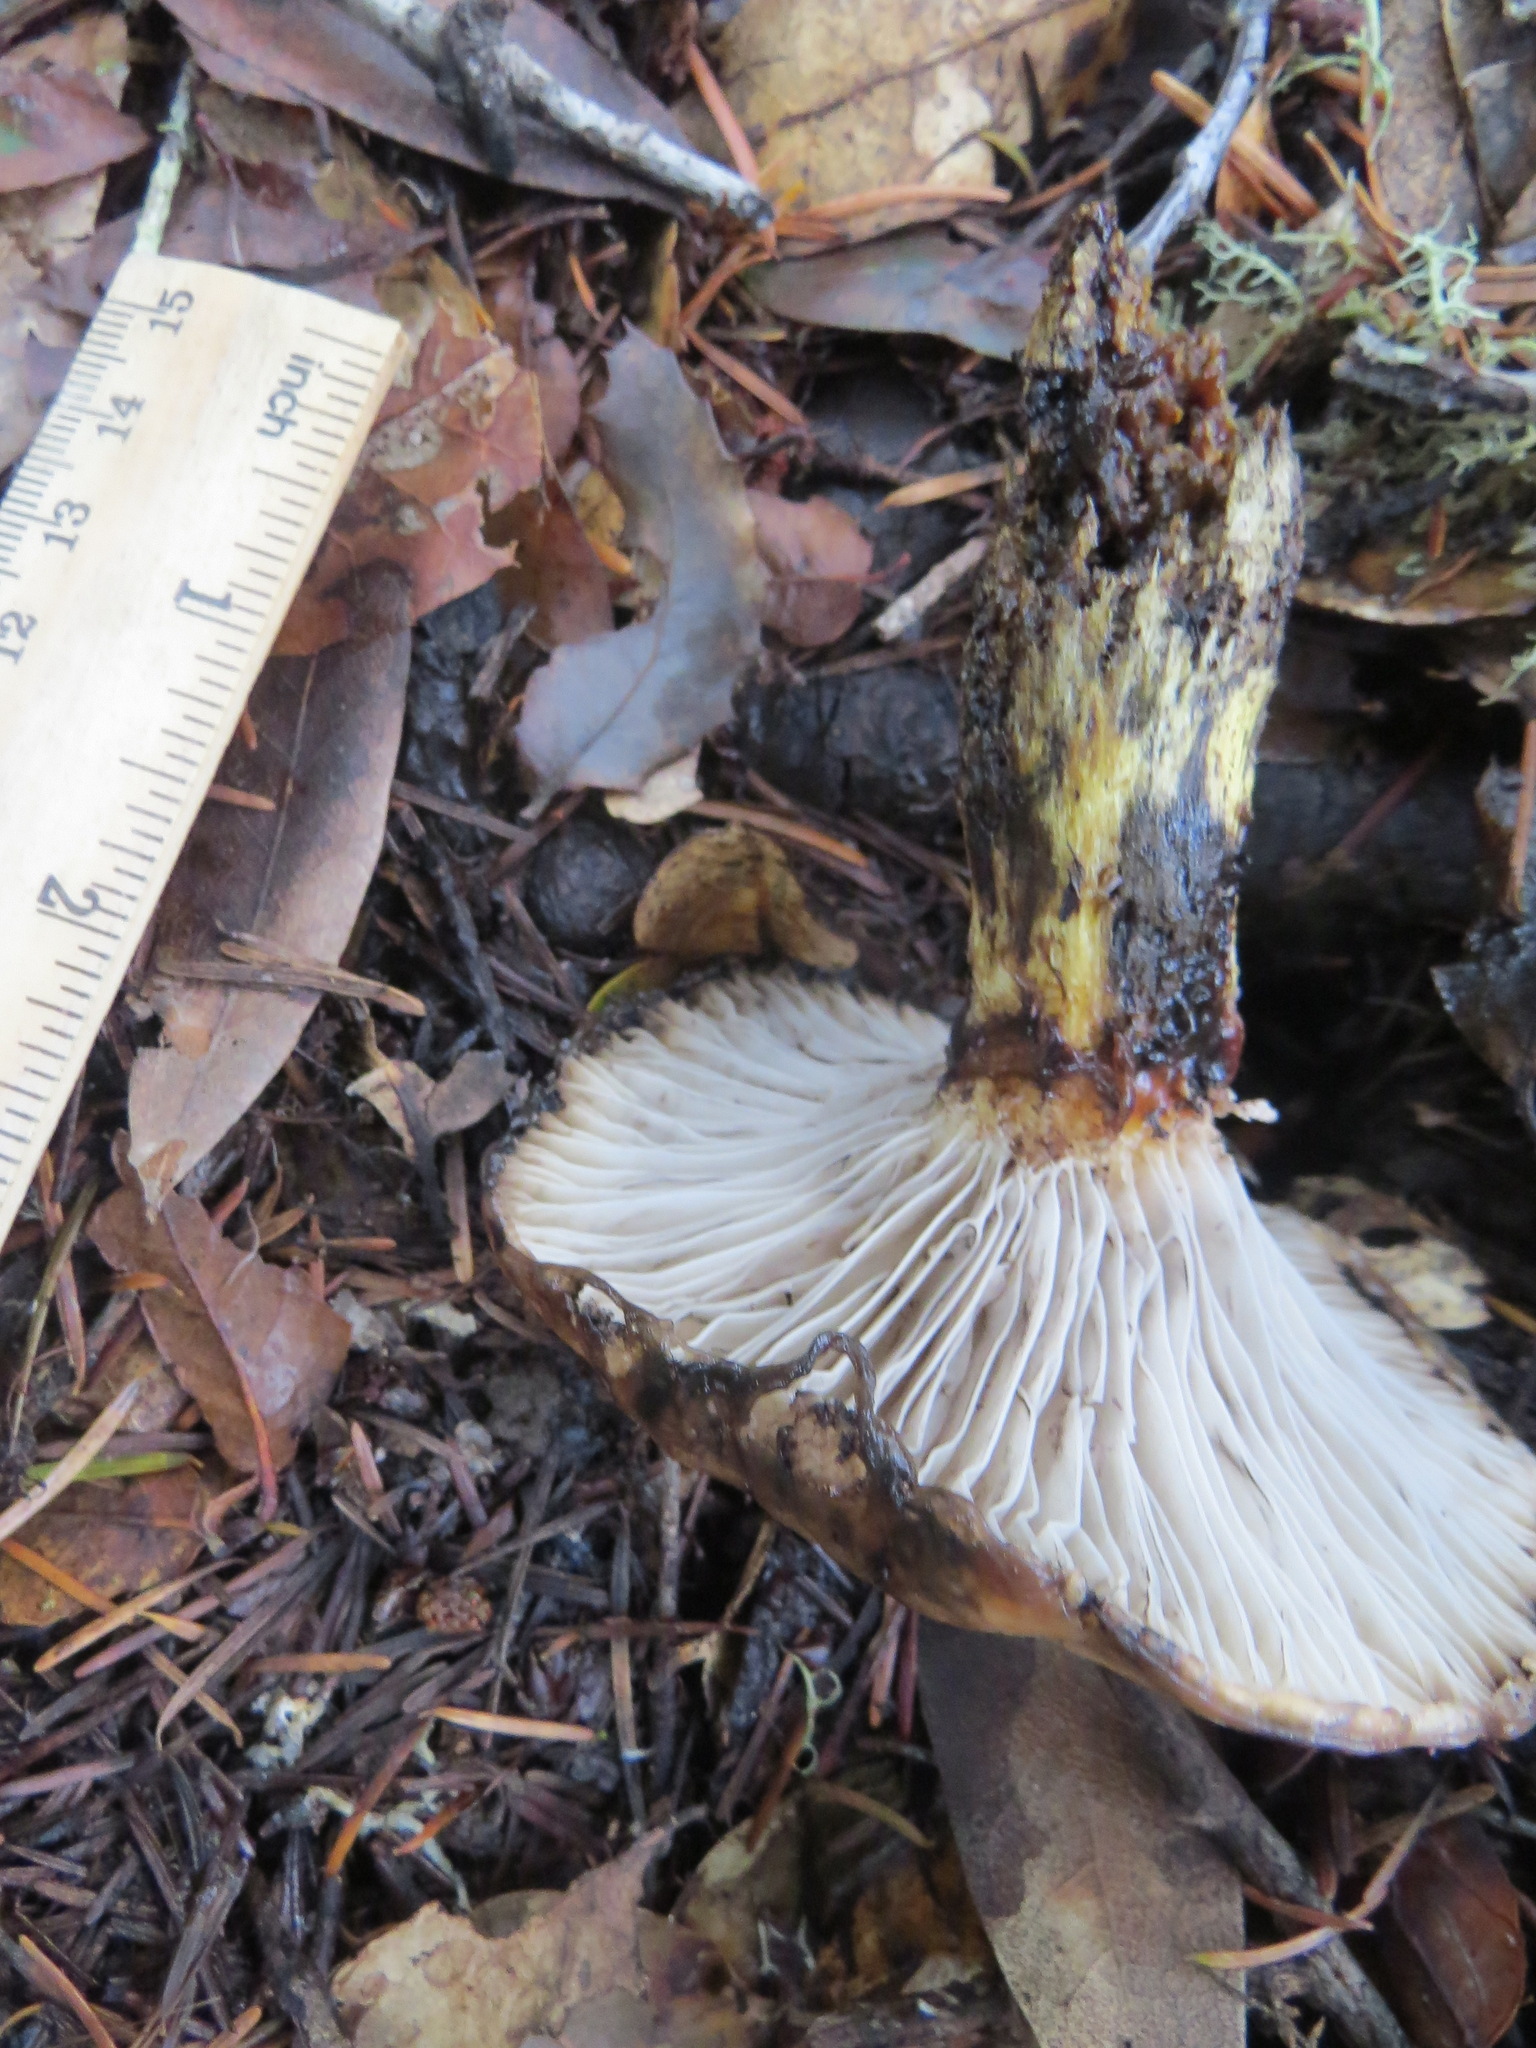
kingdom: Fungi
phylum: Basidiomycota
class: Agaricomycetes
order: Boletales
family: Gomphidiaceae
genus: Gomphidius
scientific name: Gomphidius oregonensis
